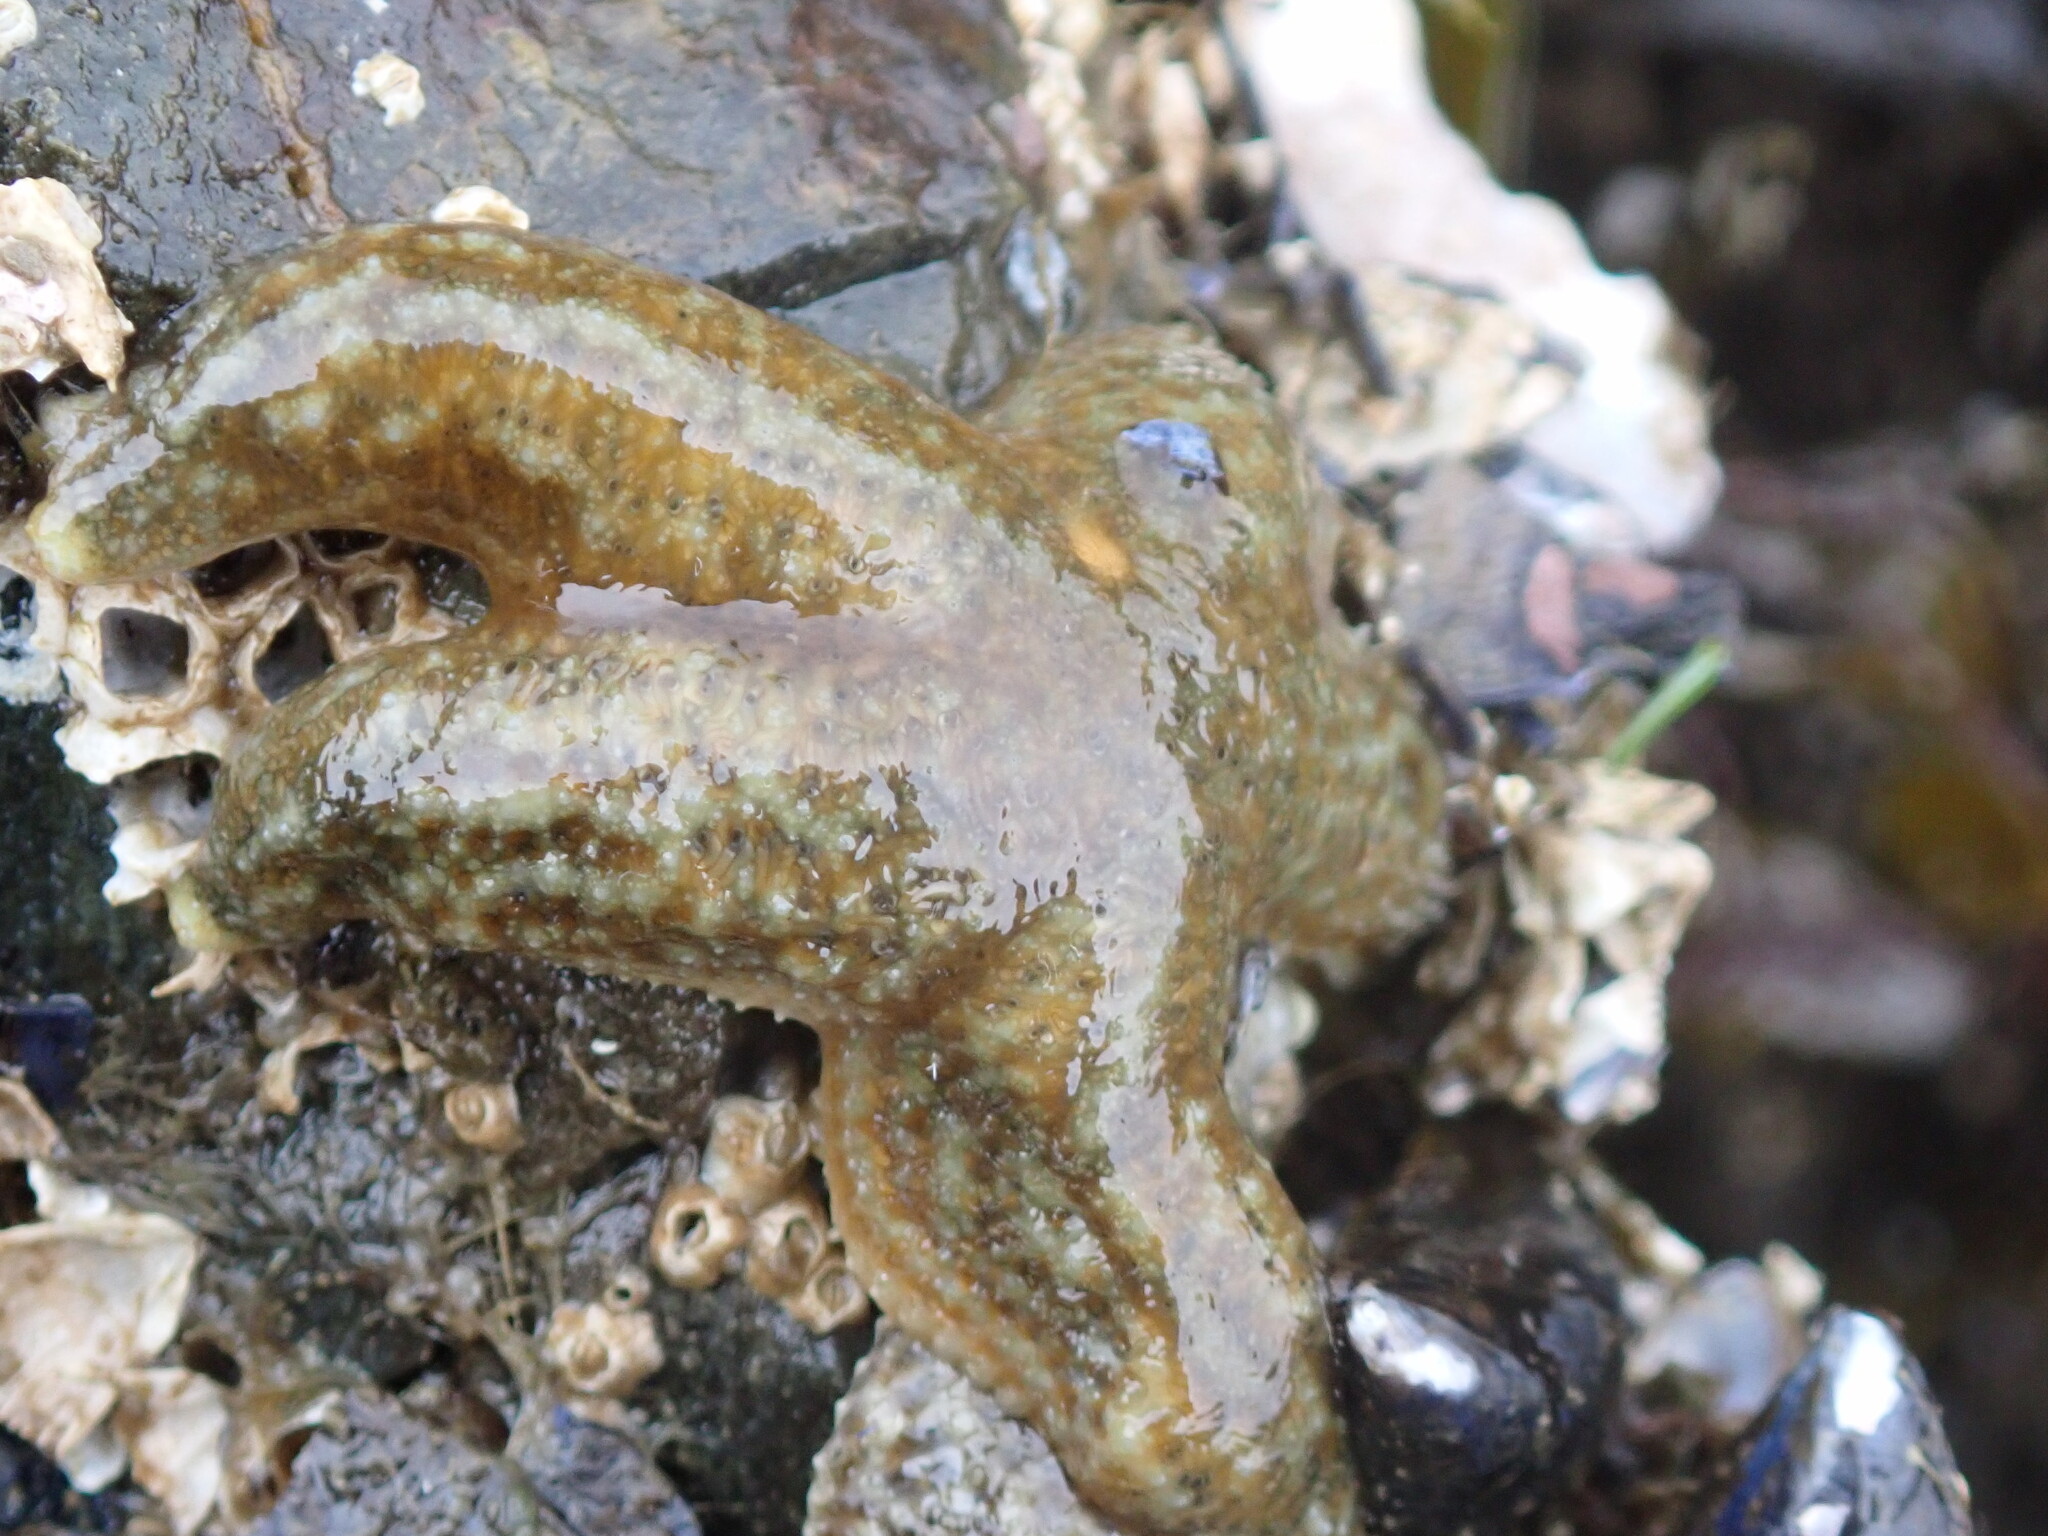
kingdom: Animalia
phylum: Echinodermata
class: Asteroidea
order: Forcipulatida
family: Asteriidae
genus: Evasterias
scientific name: Evasterias troschelii
